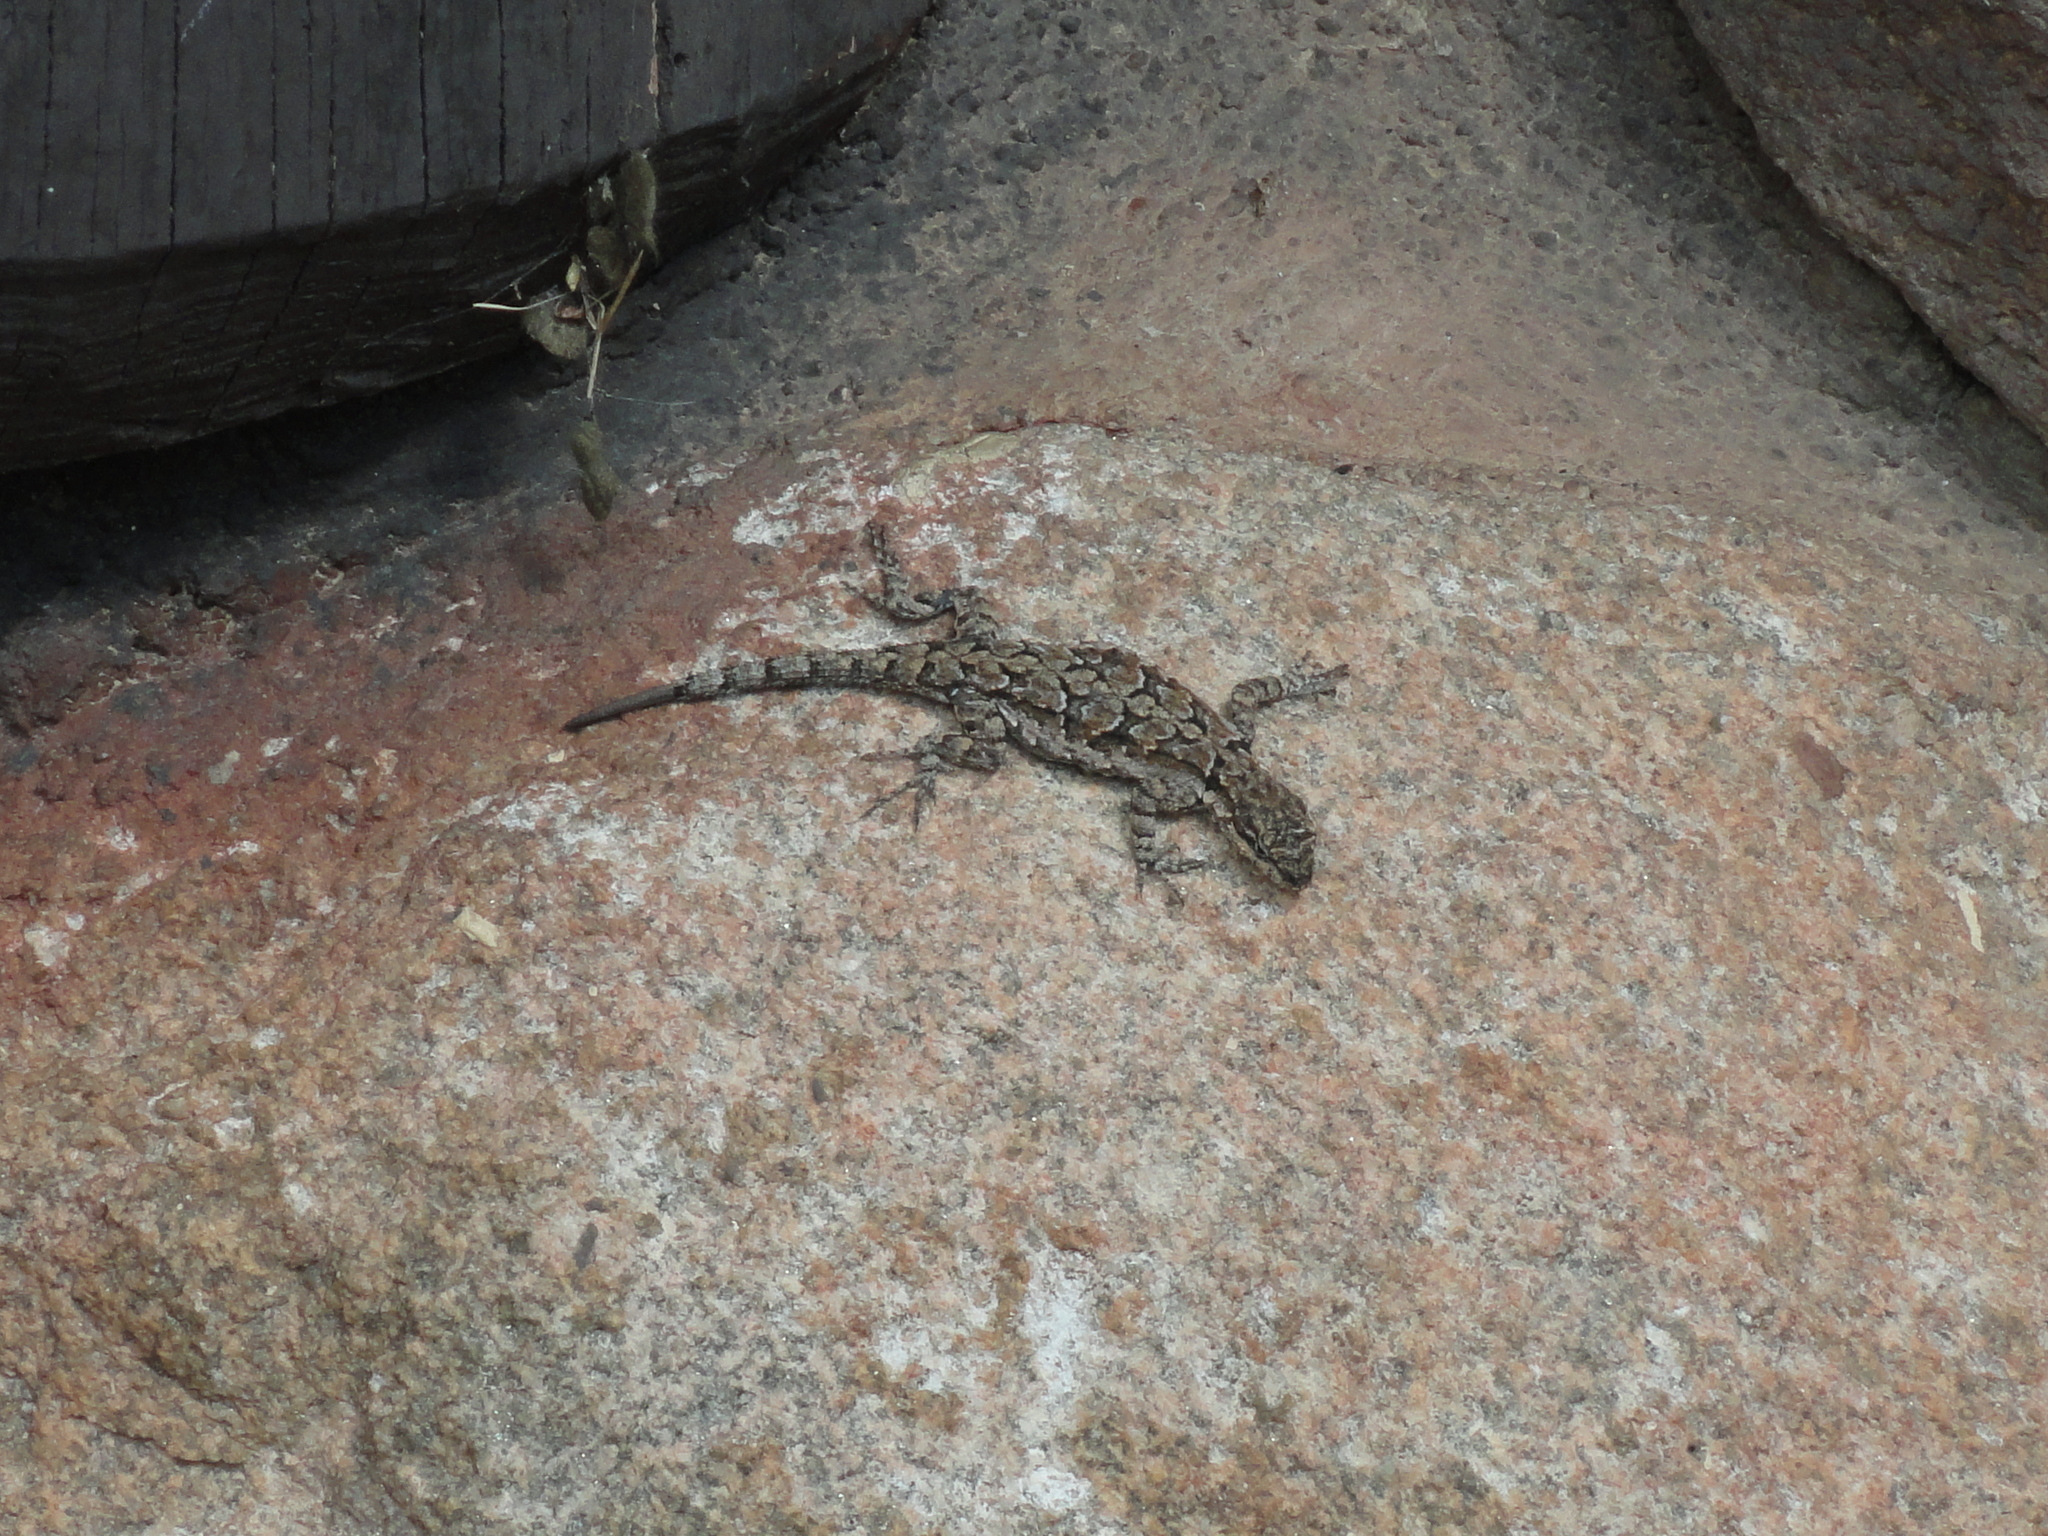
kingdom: Animalia
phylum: Chordata
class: Squamata
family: Phrynosomatidae
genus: Urosaurus
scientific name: Urosaurus ornatus
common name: Ornate tree lizard
